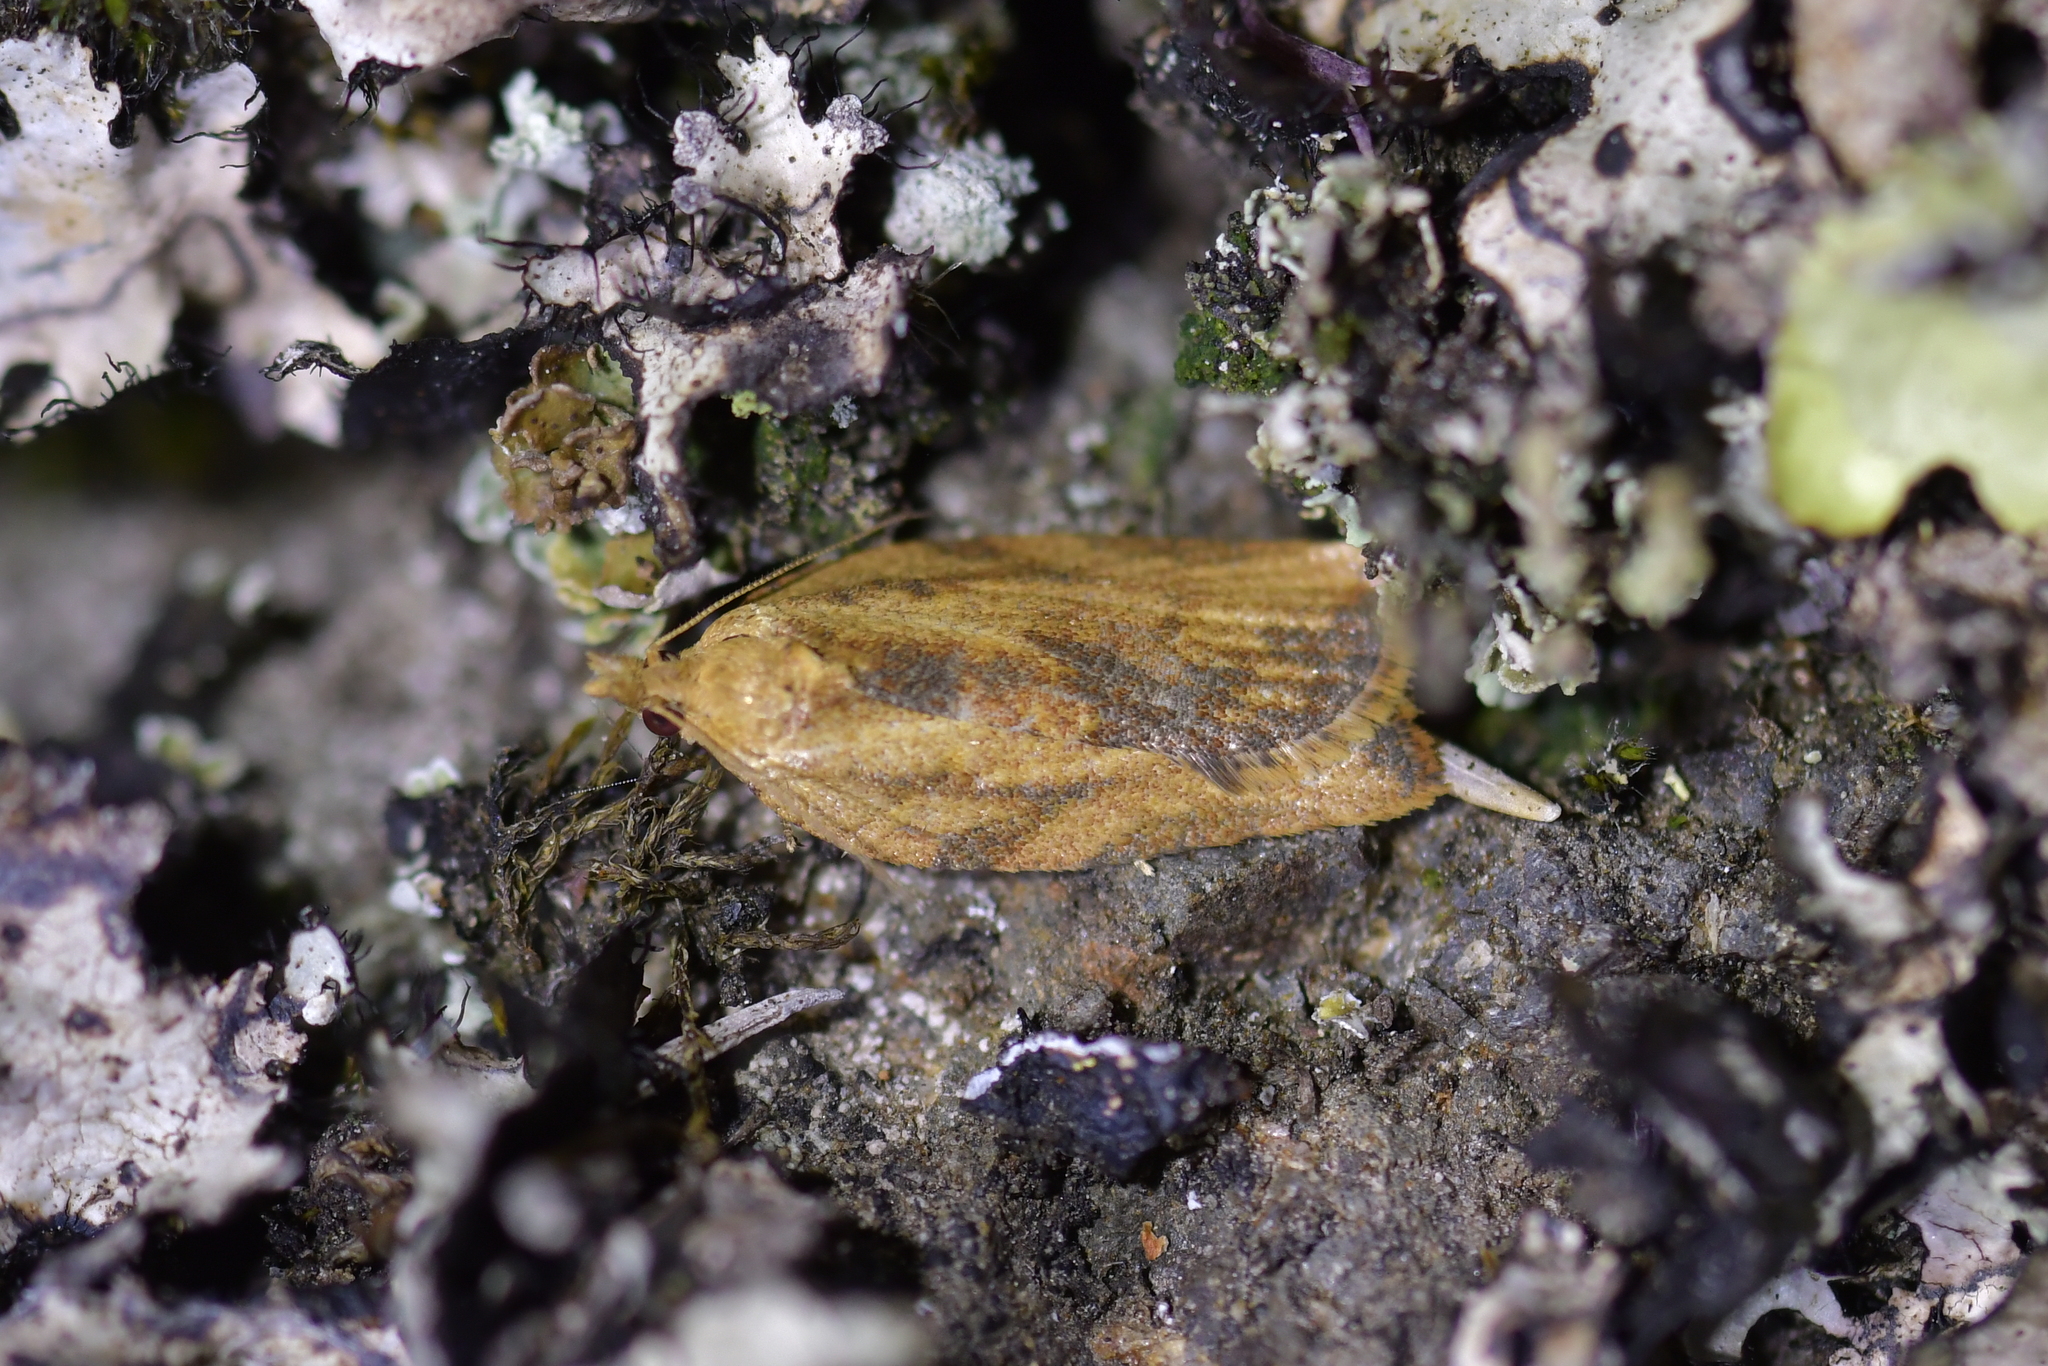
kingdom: Animalia
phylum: Arthropoda
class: Insecta
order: Lepidoptera
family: Tortricidae
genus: Epiphyas
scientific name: Epiphyas postvittana
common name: Light brown apple moth
